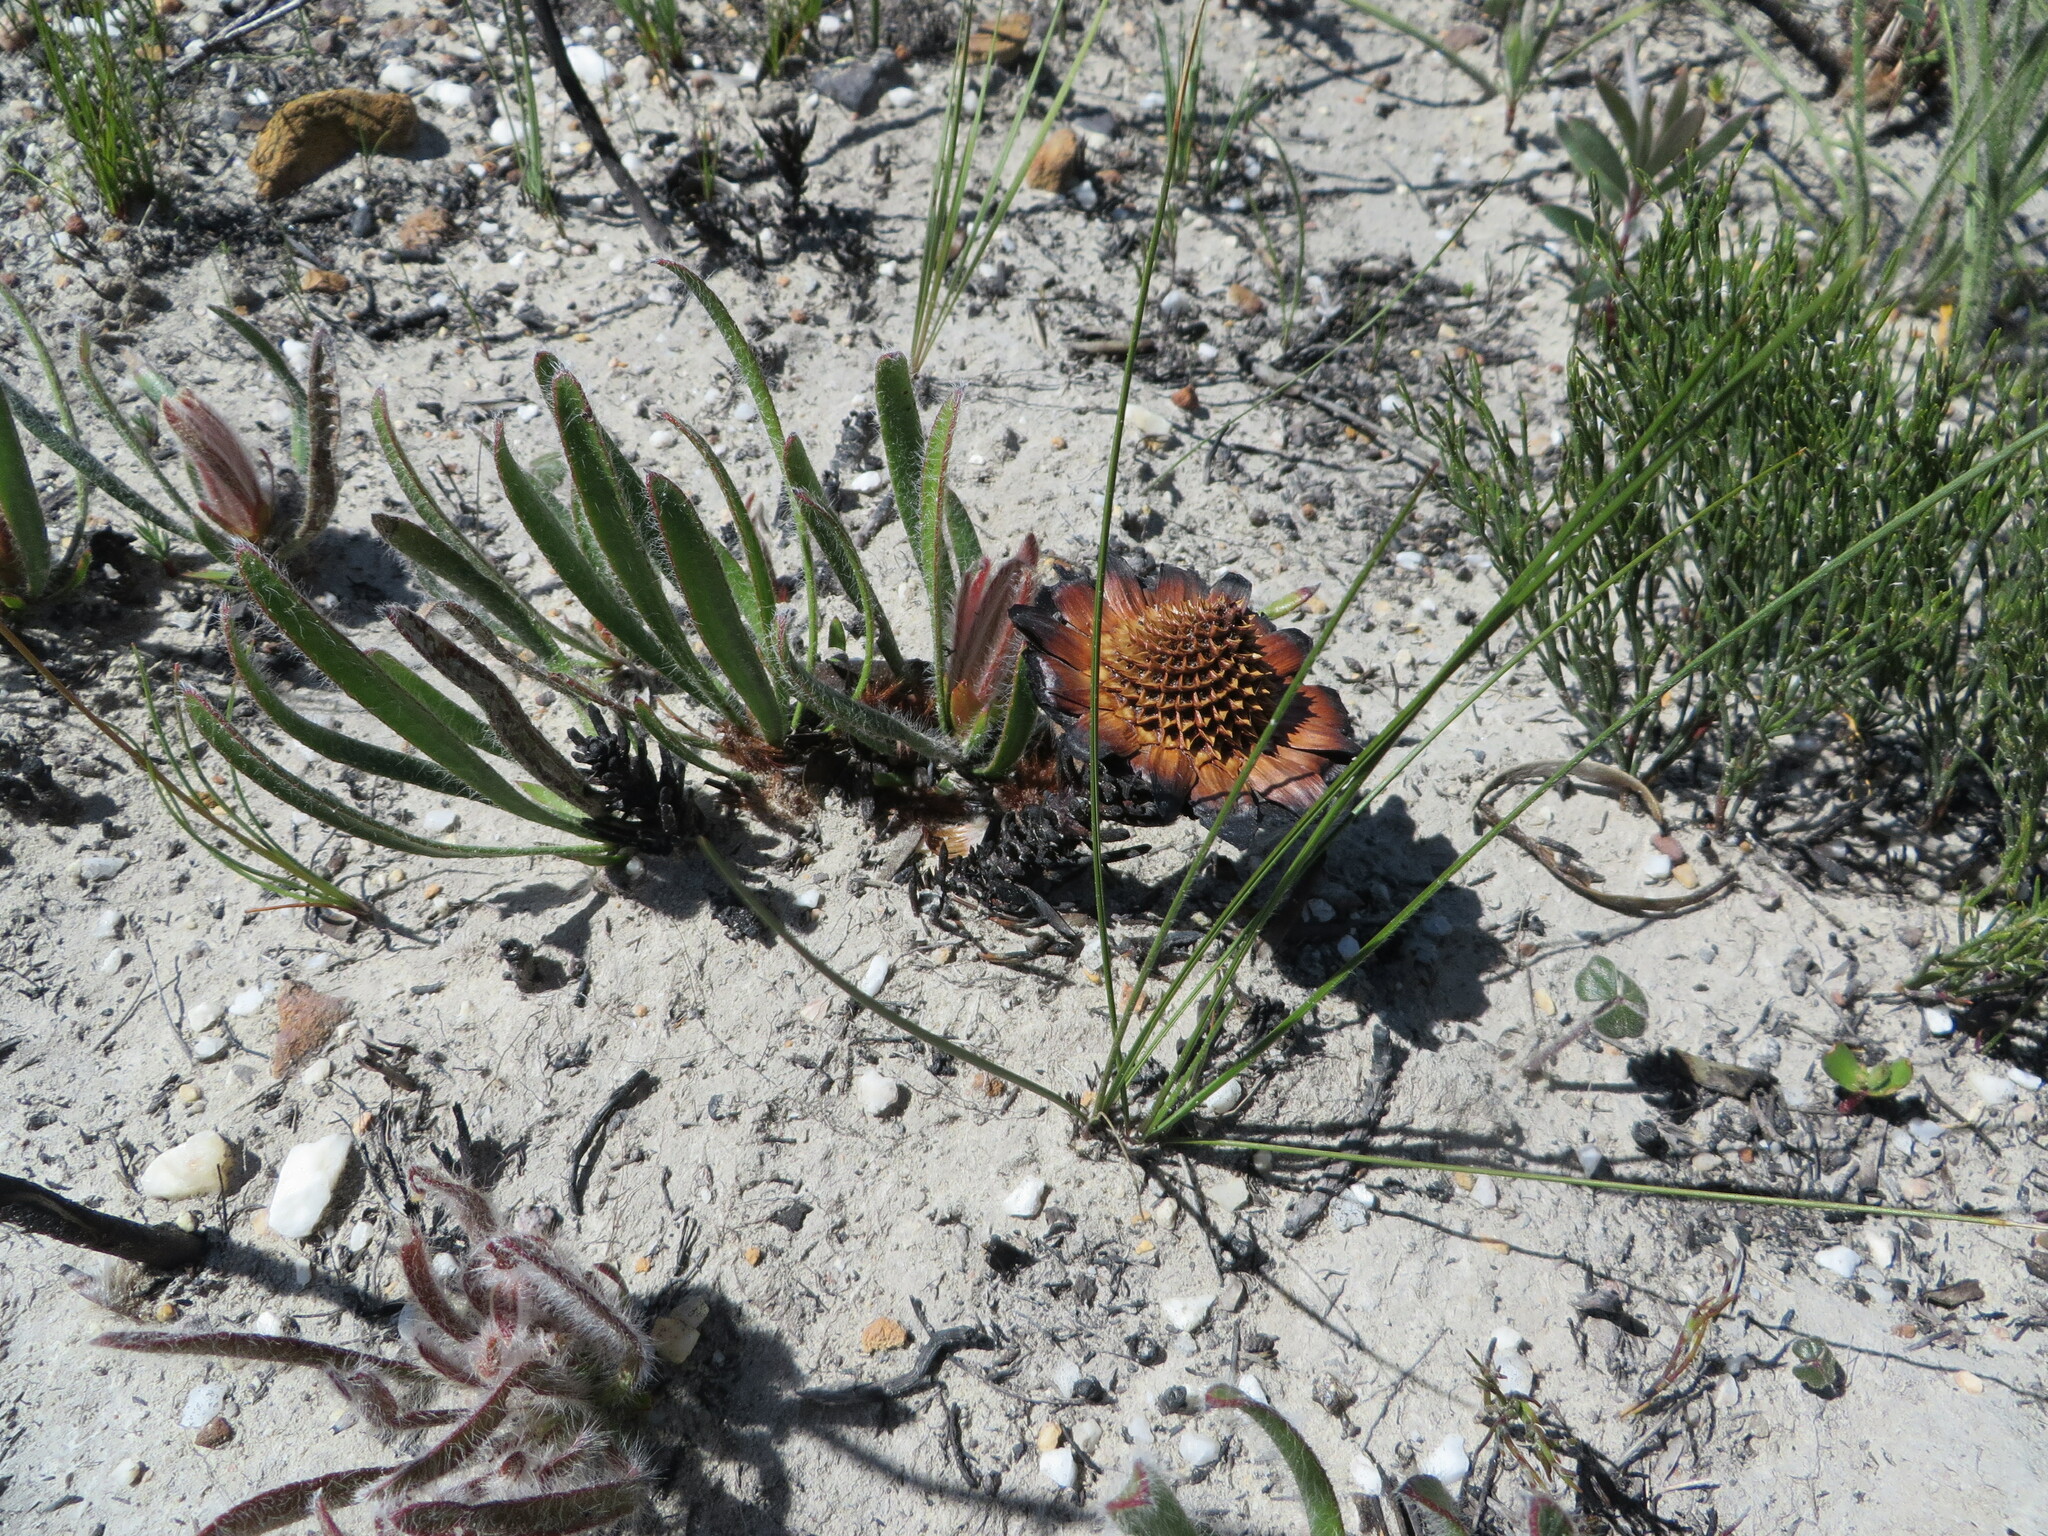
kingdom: Plantae
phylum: Tracheophyta
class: Magnoliopsida
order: Proteales
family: Proteaceae
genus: Protea
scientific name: Protea aspera
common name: Rough-leaf sugarbush
